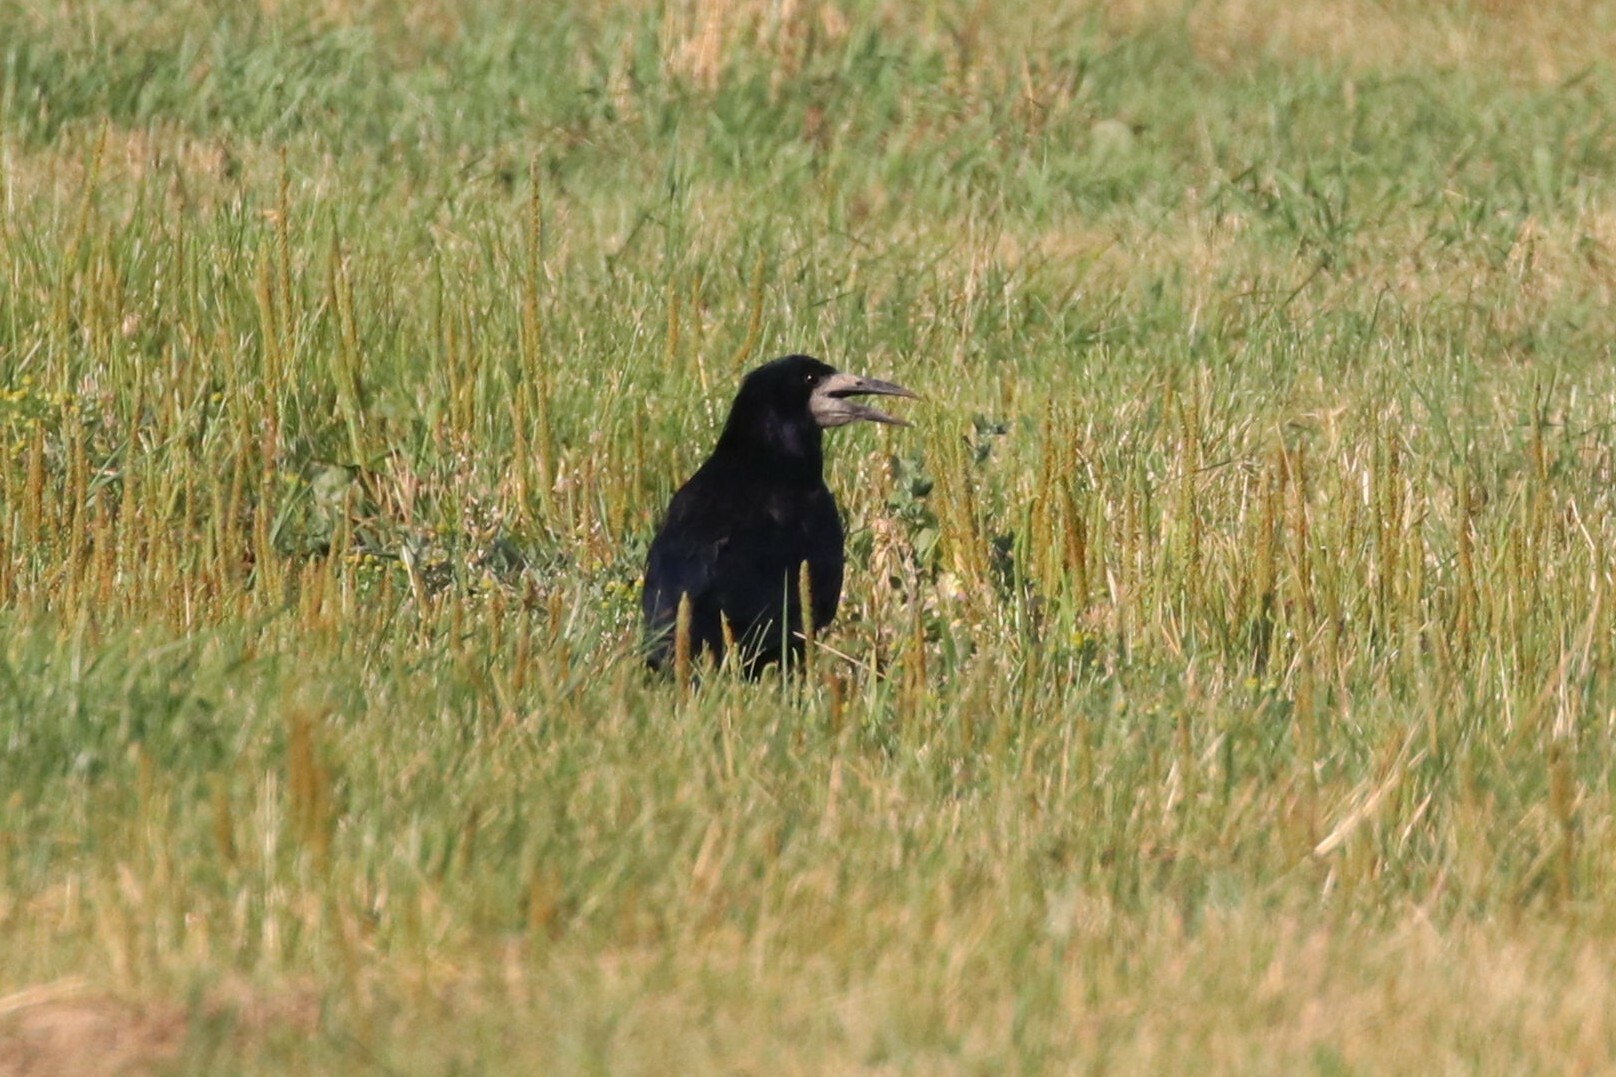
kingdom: Animalia
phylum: Chordata
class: Aves
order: Passeriformes
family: Corvidae
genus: Corvus
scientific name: Corvus frugilegus
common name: Rook
